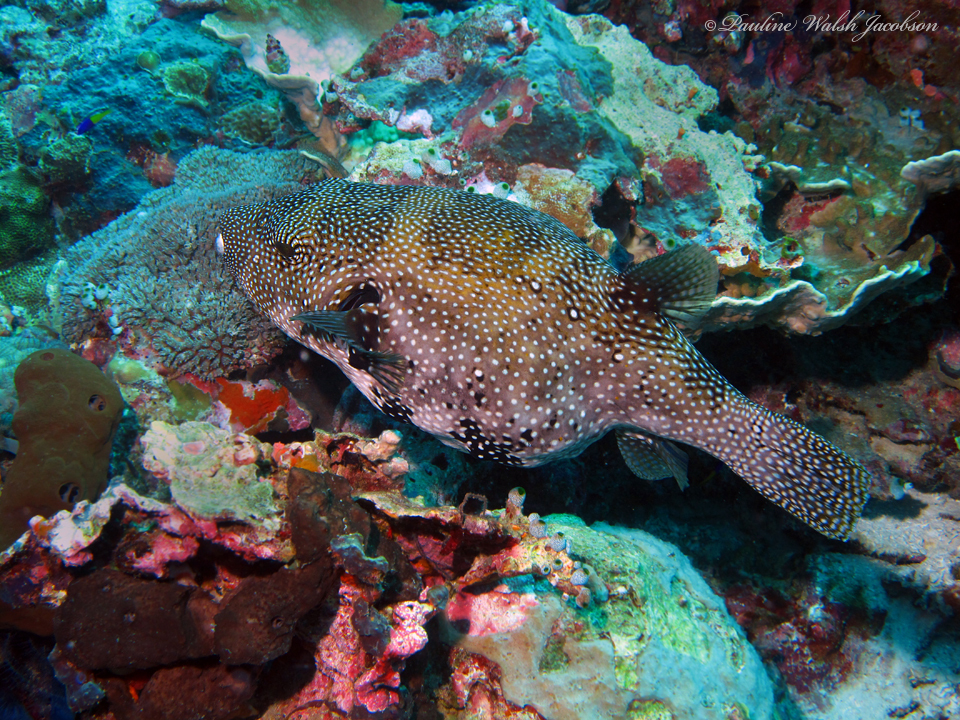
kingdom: Animalia
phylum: Chordata
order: Tetraodontiformes
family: Tetraodontidae
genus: Arothron
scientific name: Arothron caeruleopunctatus
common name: Blue-spotted puffer
